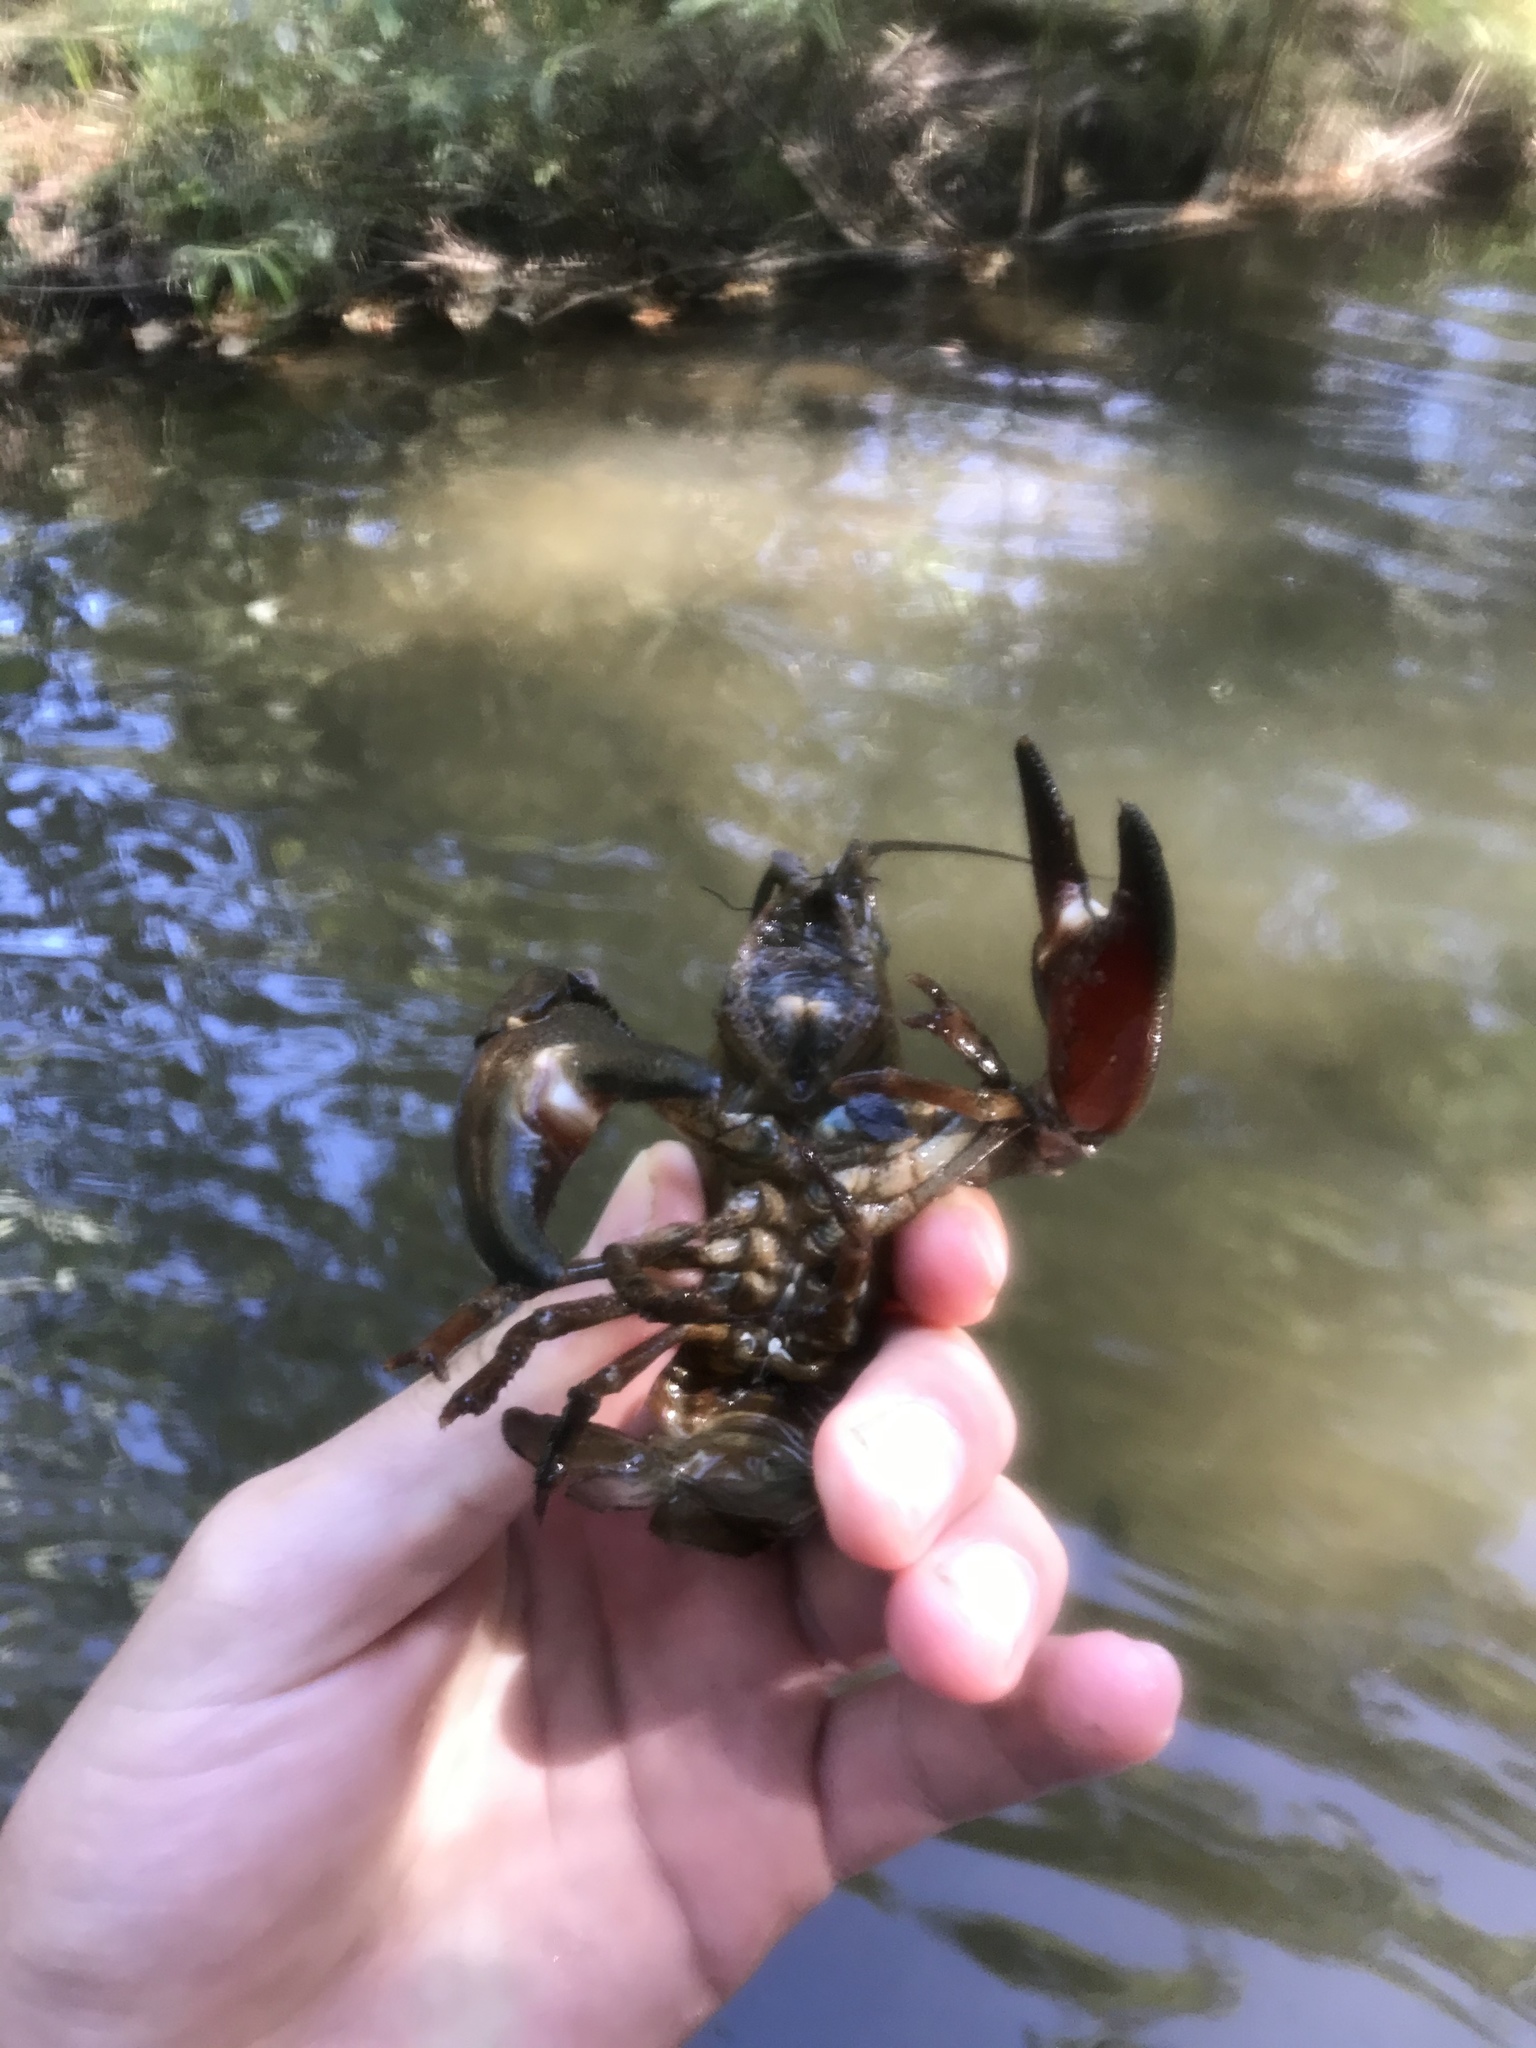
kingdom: Animalia
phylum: Arthropoda
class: Malacostraca
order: Decapoda
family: Astacidae
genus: Pacifastacus
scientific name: Pacifastacus leniusculus
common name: Signal crayfish
